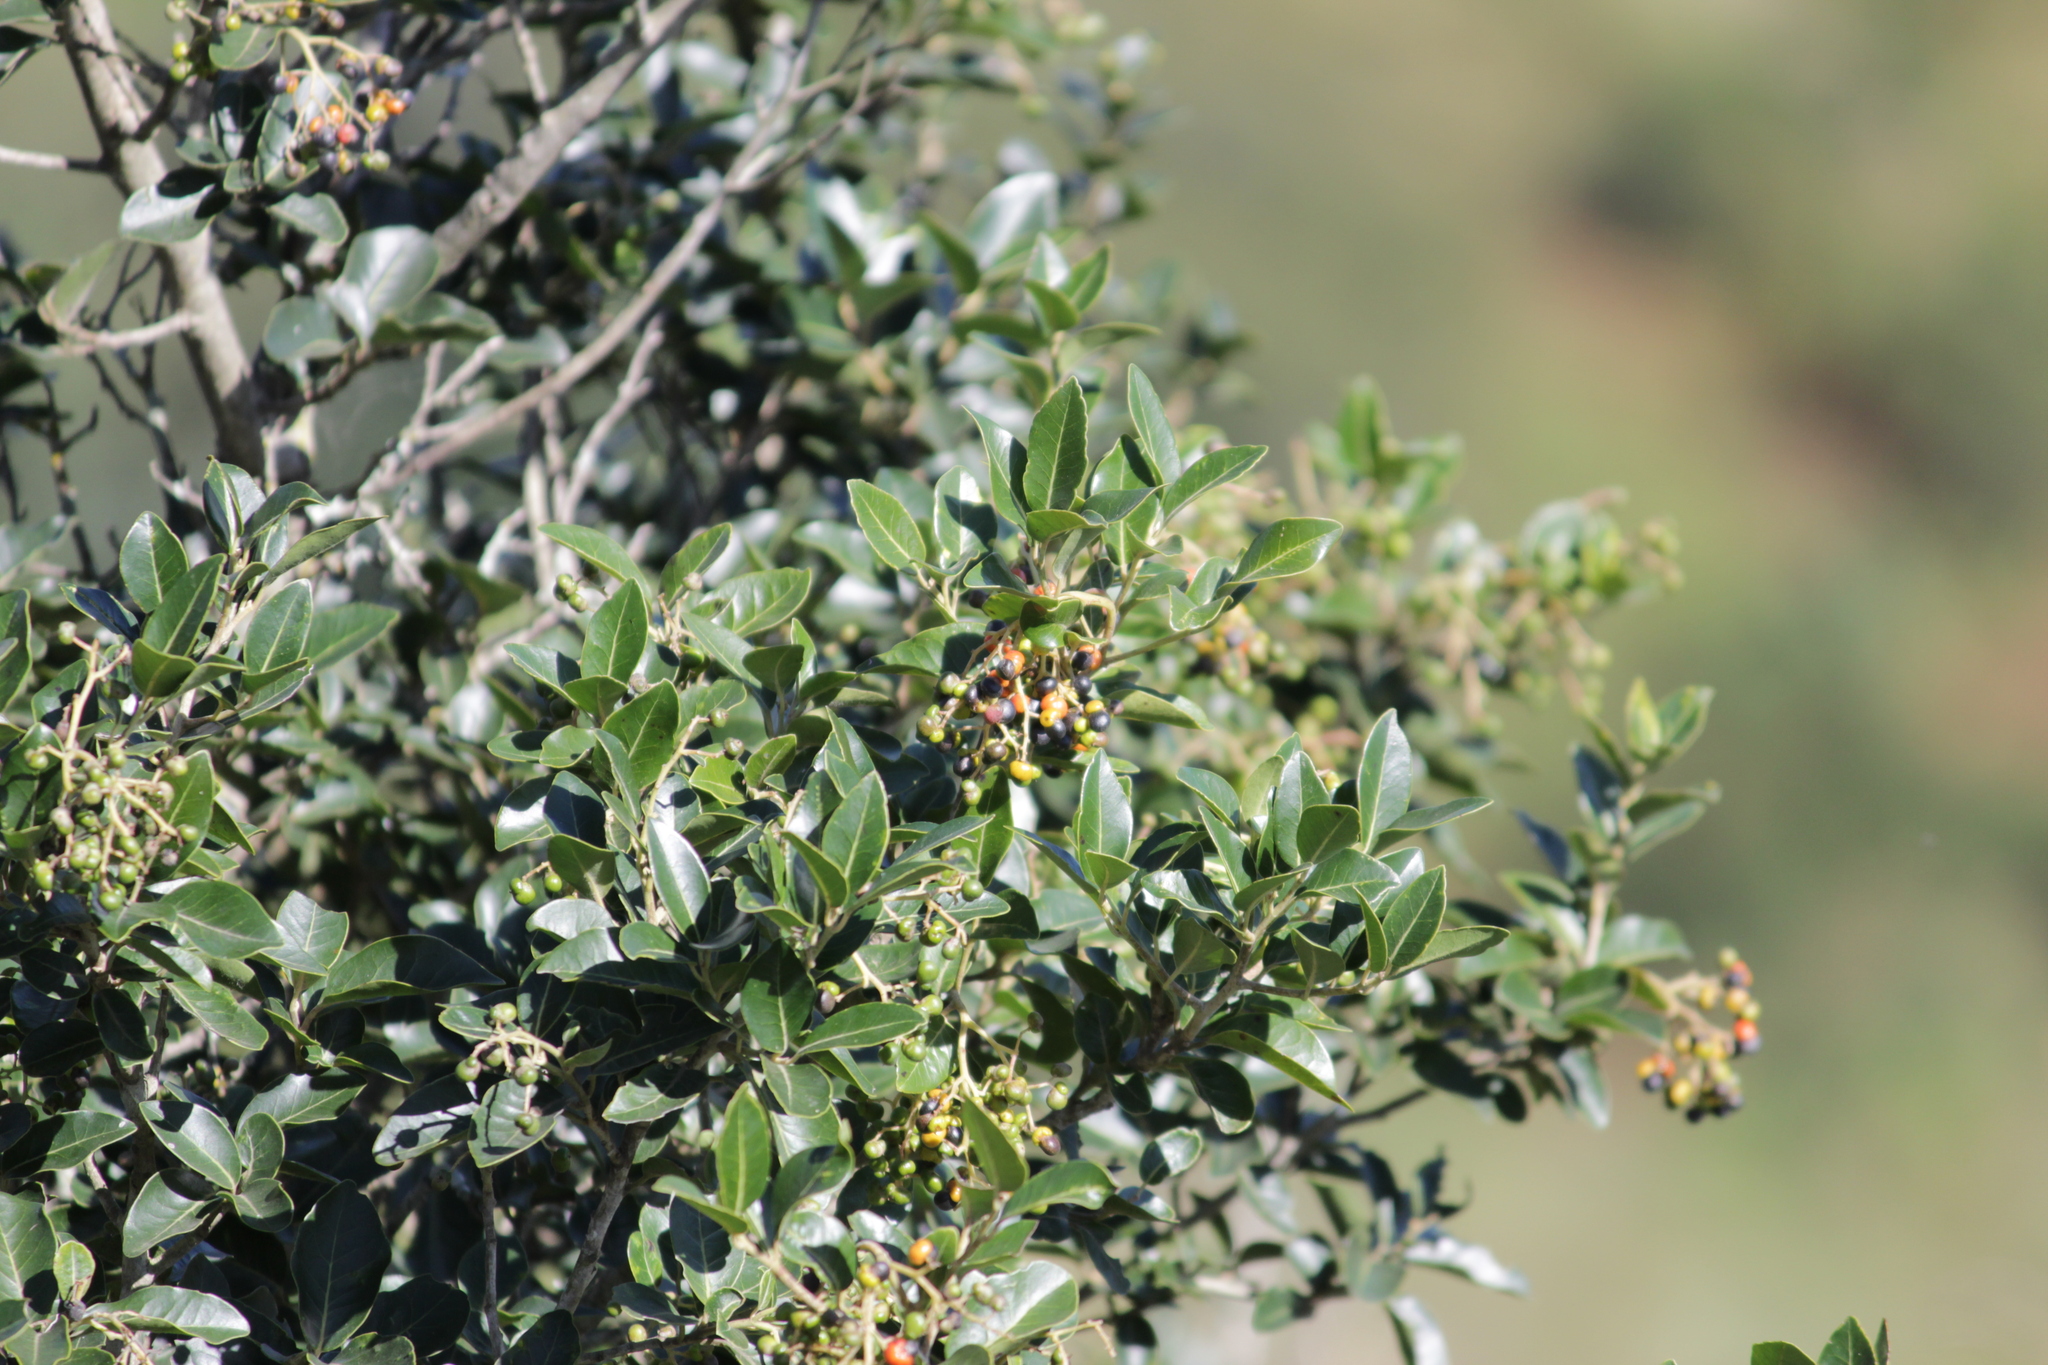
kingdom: Plantae
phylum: Tracheophyta
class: Magnoliopsida
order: Metteniusales
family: Metteniusaceae
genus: Apodytes
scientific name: Apodytes dimidiata
